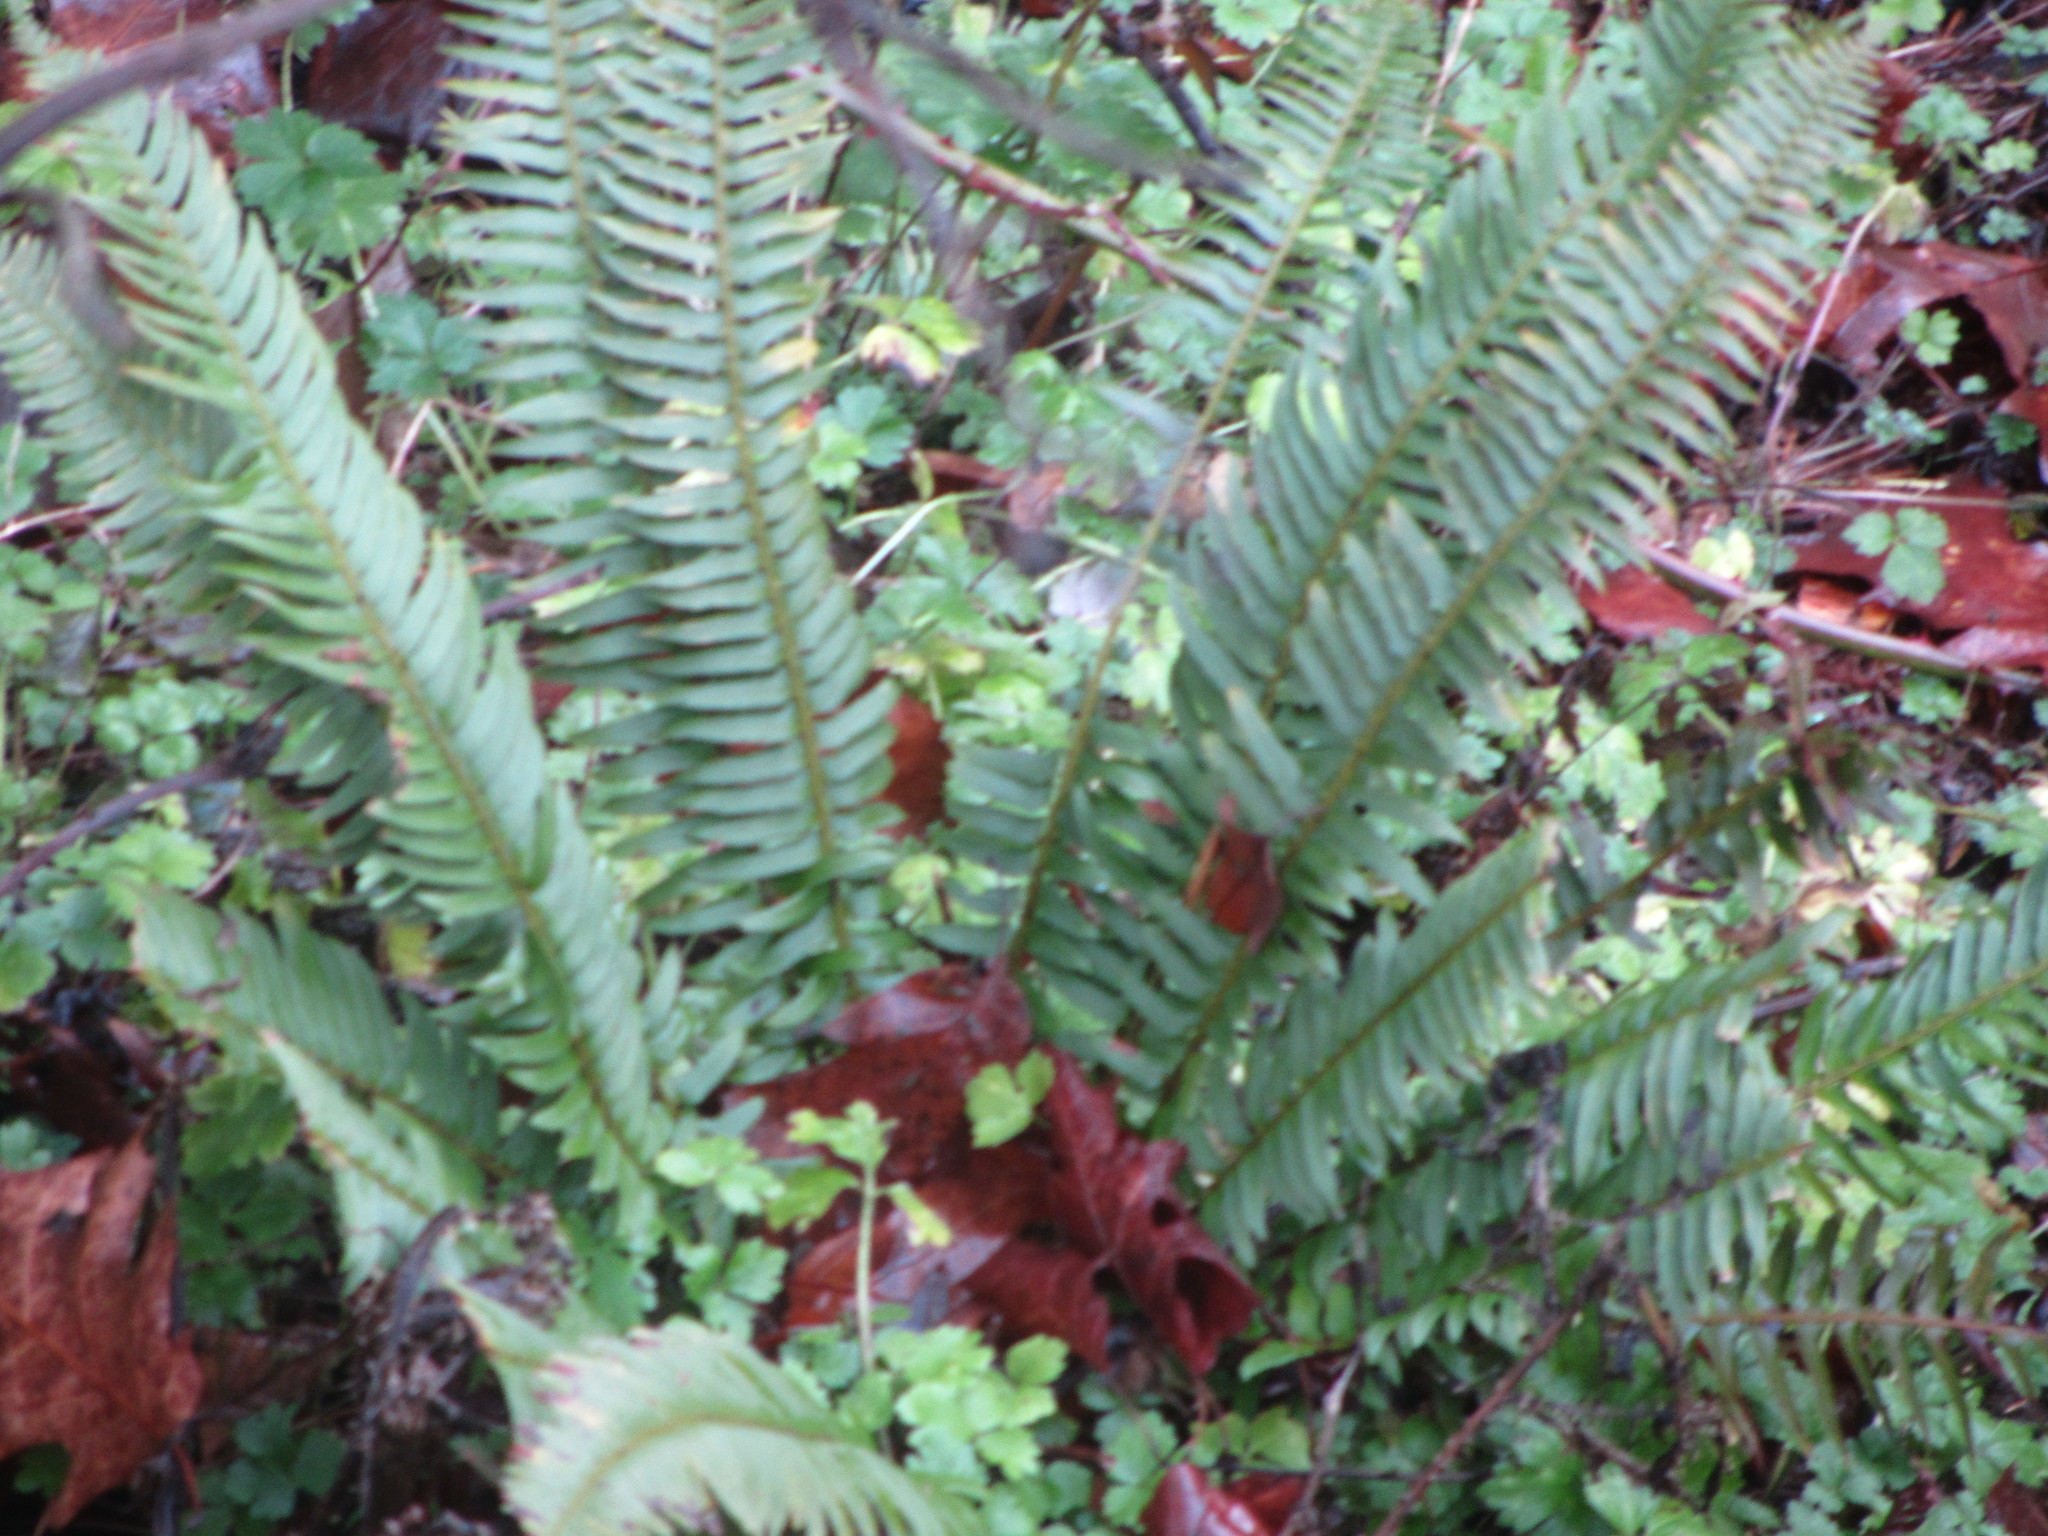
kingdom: Plantae
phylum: Tracheophyta
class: Polypodiopsida
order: Polypodiales
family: Dryopteridaceae
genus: Polystichum
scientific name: Polystichum munitum
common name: Western sword-fern
